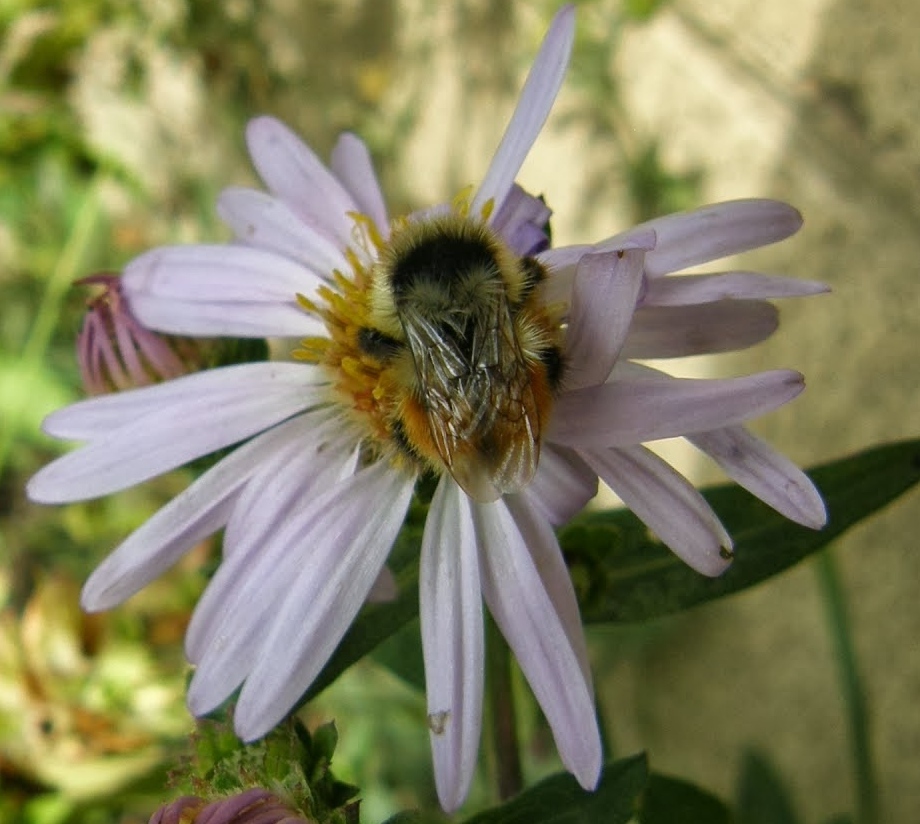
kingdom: Animalia
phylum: Arthropoda
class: Insecta
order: Hymenoptera
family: Apidae
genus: Pyrobombus
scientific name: Pyrobombus
